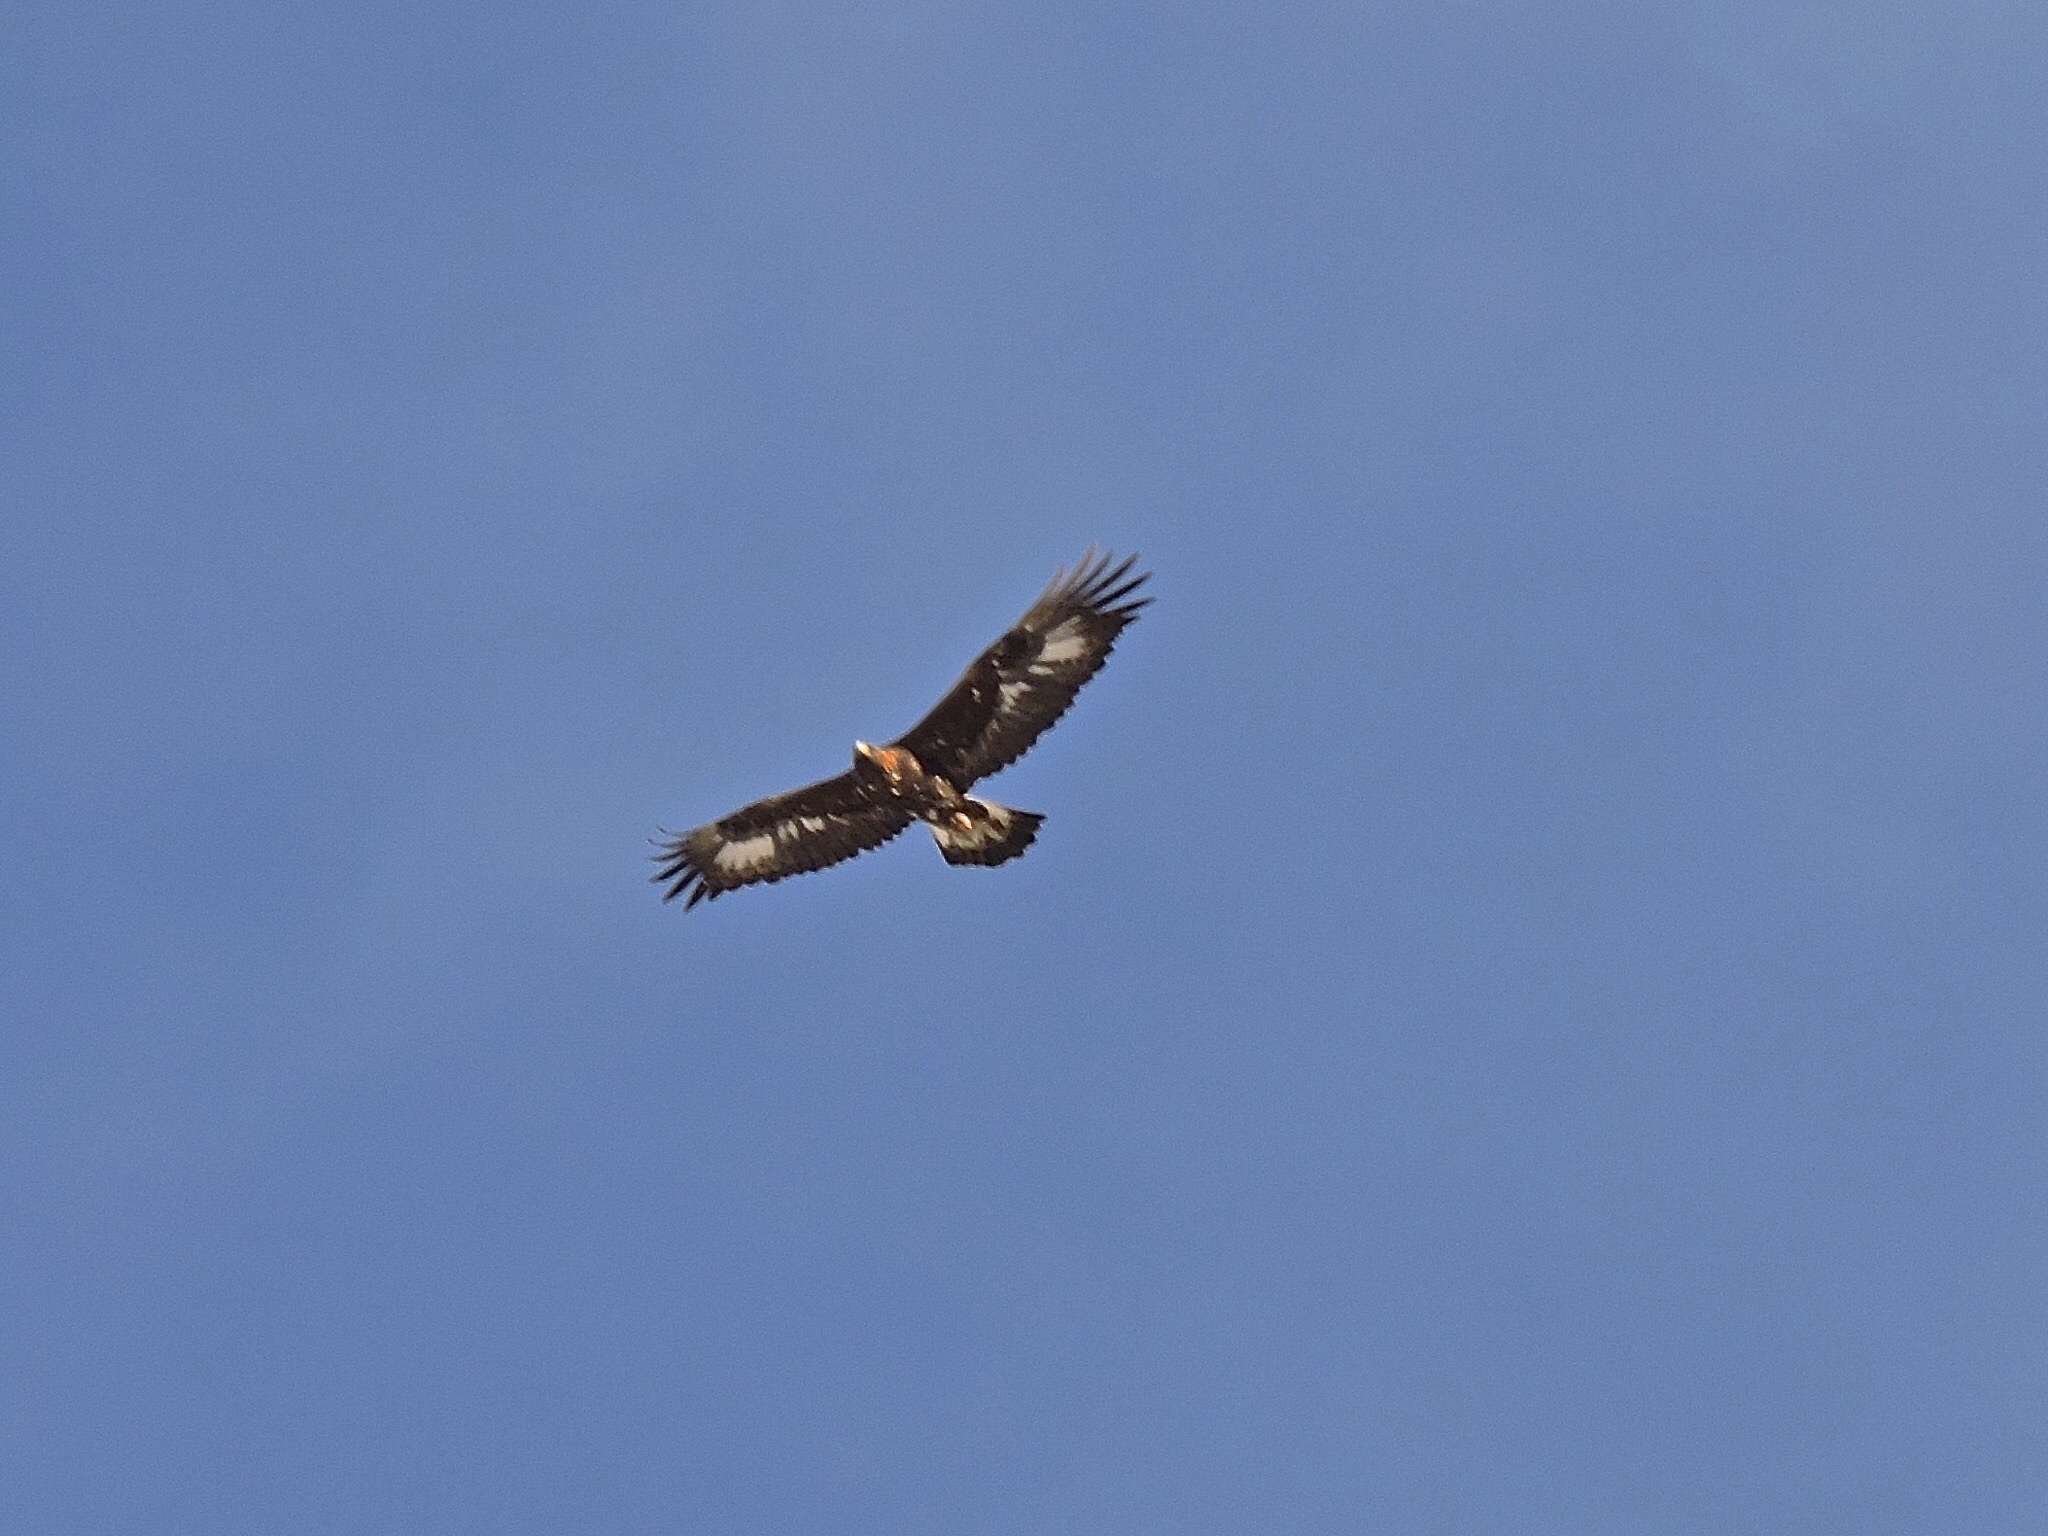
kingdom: Animalia
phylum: Chordata
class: Aves
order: Accipitriformes
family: Accipitridae
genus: Aquila
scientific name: Aquila chrysaetos
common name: Golden eagle
